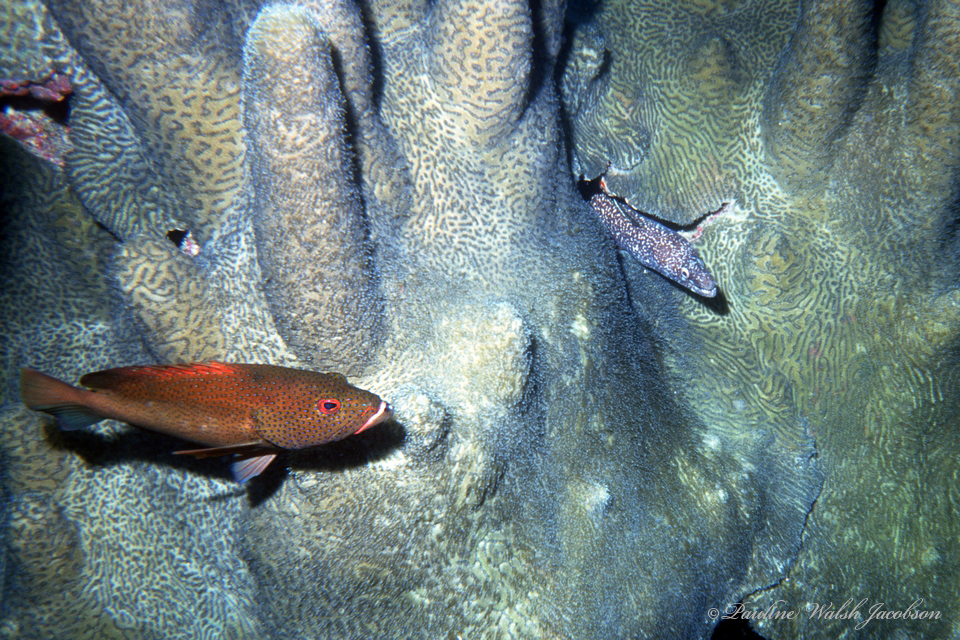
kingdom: Animalia
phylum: Chordata
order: Perciformes
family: Serranidae
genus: Cephalopholis
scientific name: Cephalopholis fulva
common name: Butterfish
